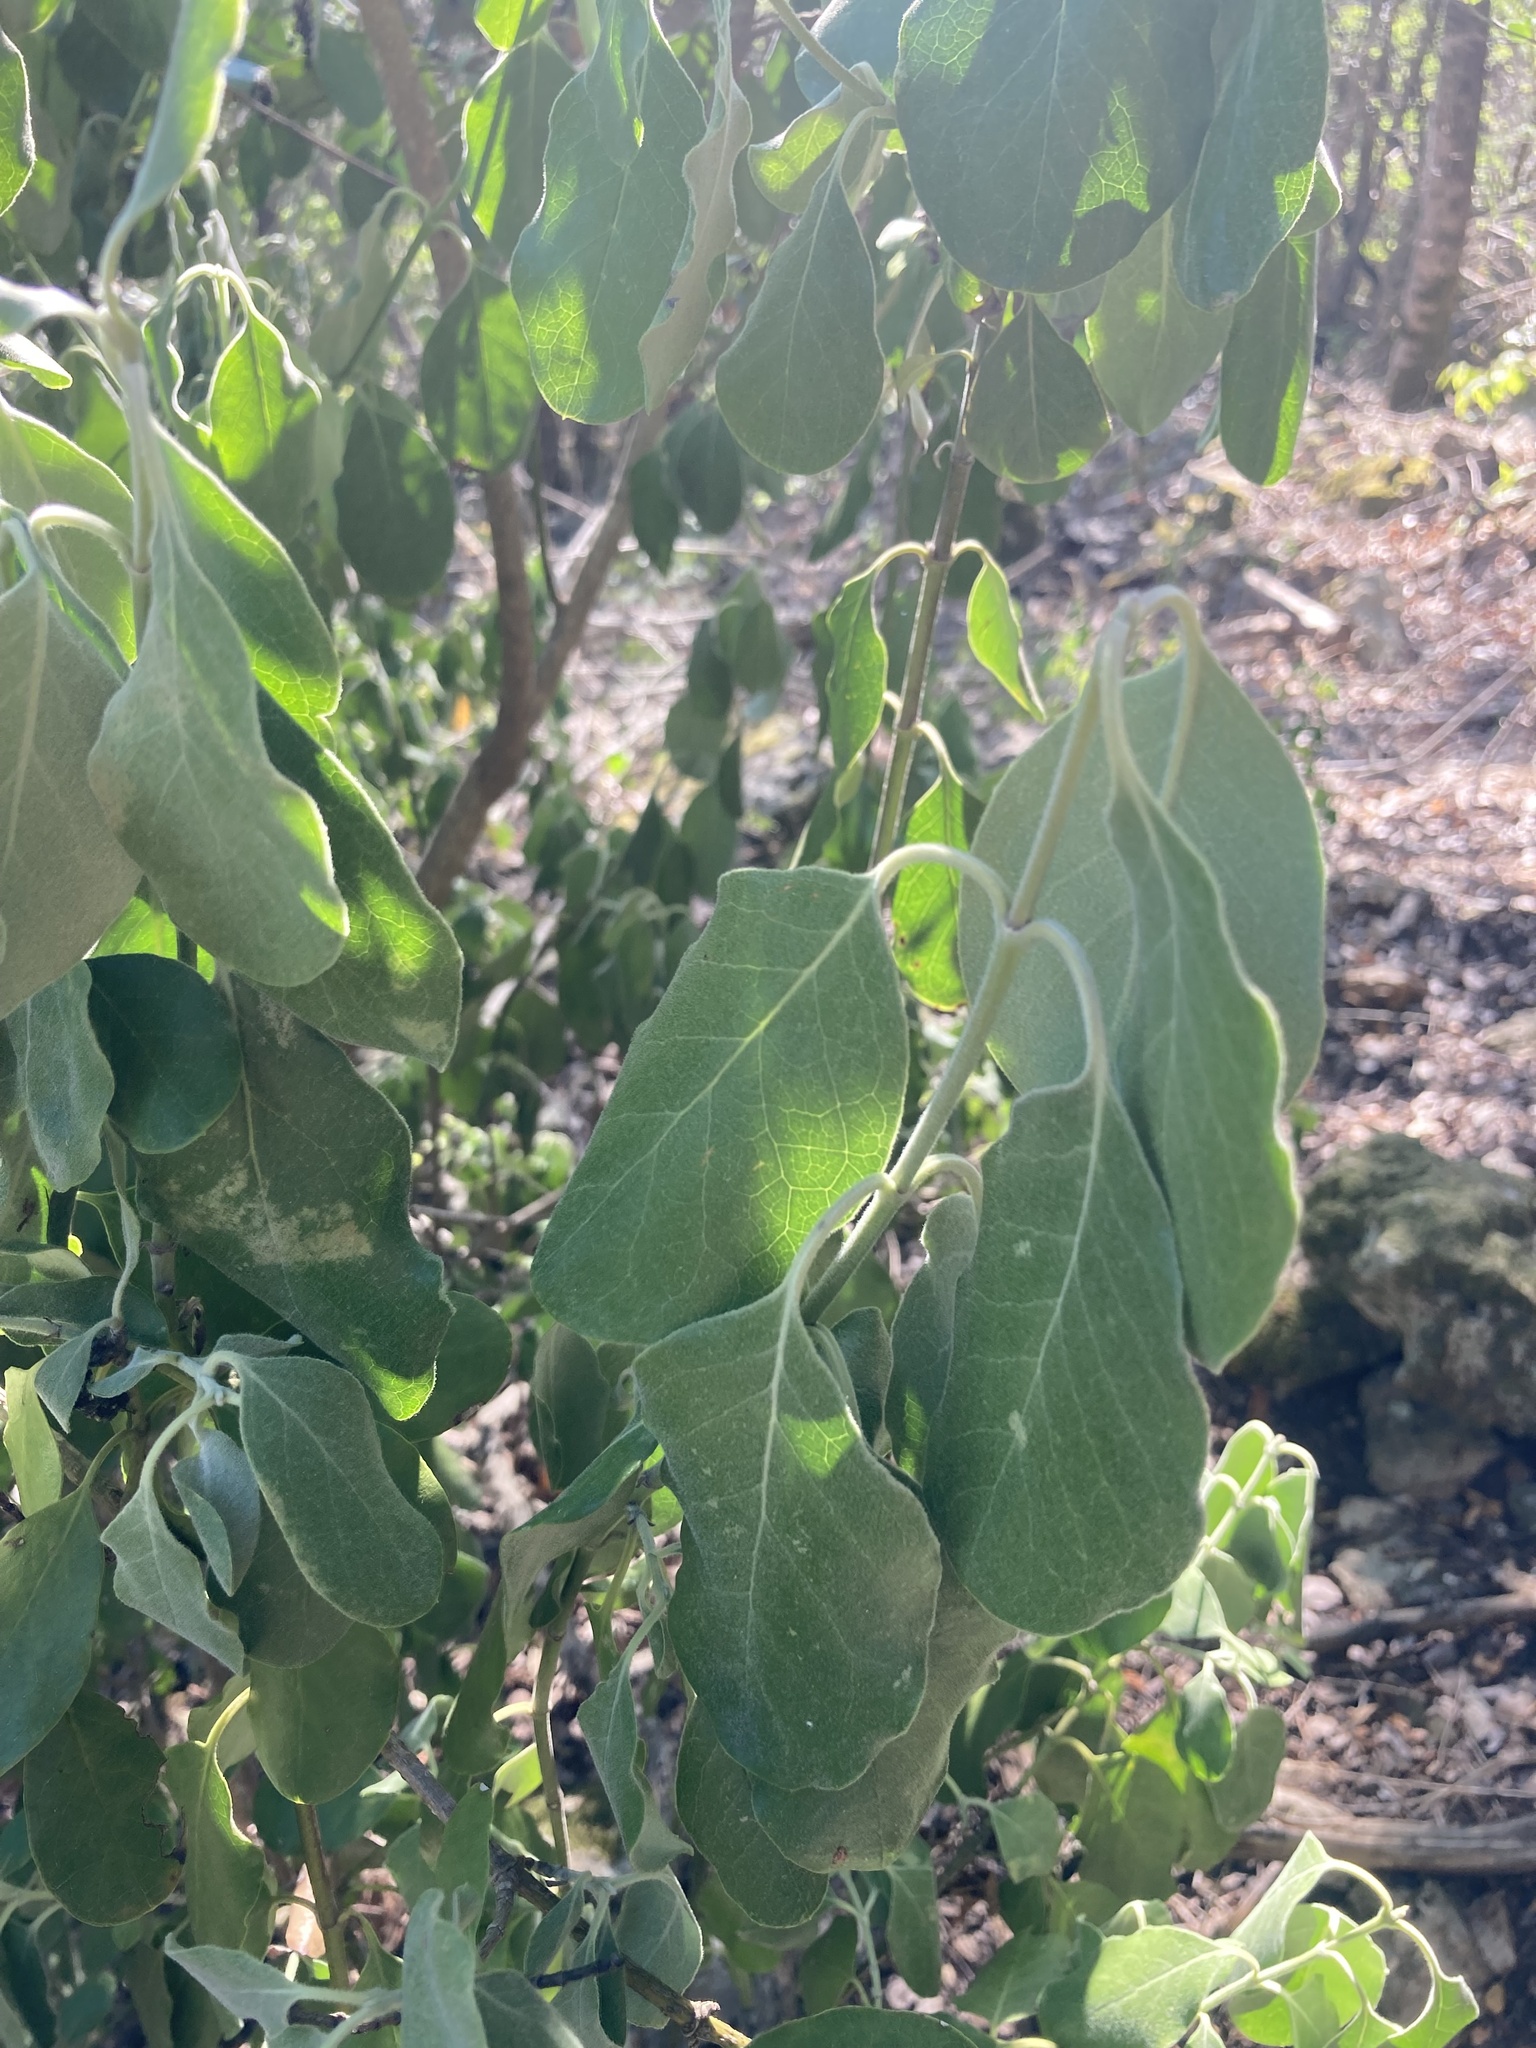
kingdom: Plantae
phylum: Tracheophyta
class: Magnoliopsida
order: Garryales
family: Garryaceae
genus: Garrya
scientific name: Garrya lindheimeri
